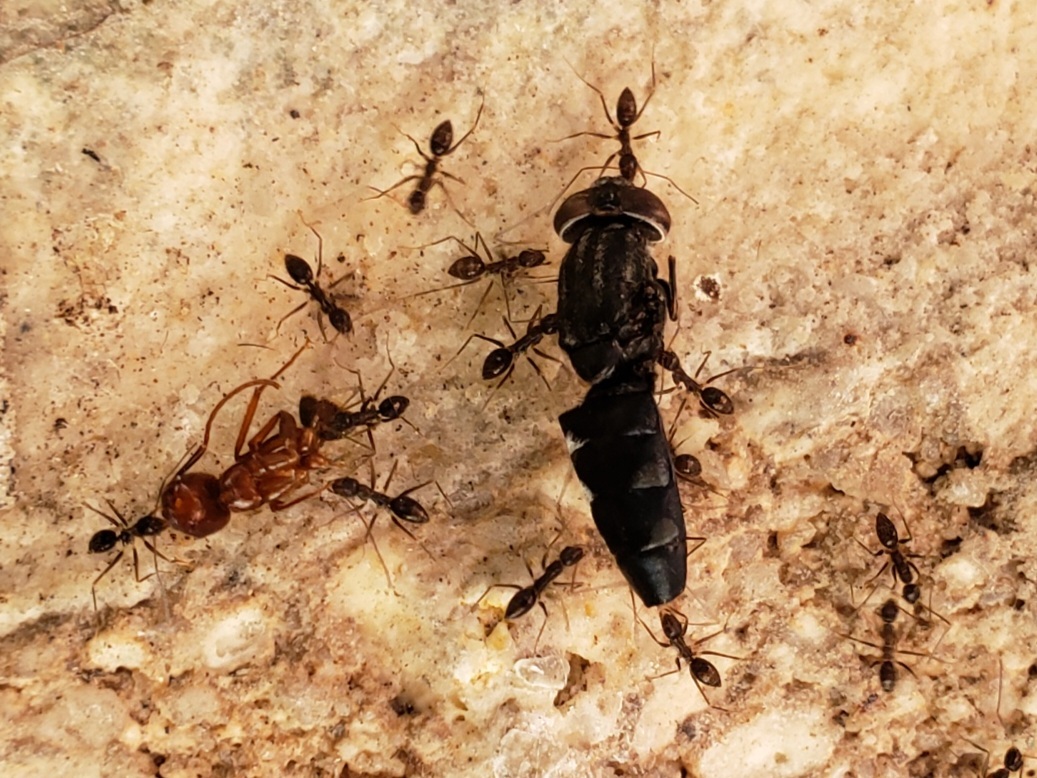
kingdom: Animalia
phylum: Arthropoda
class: Insecta
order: Diptera
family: Stratiomyidae
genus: Hermetia
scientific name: Hermetia sexmaculata
